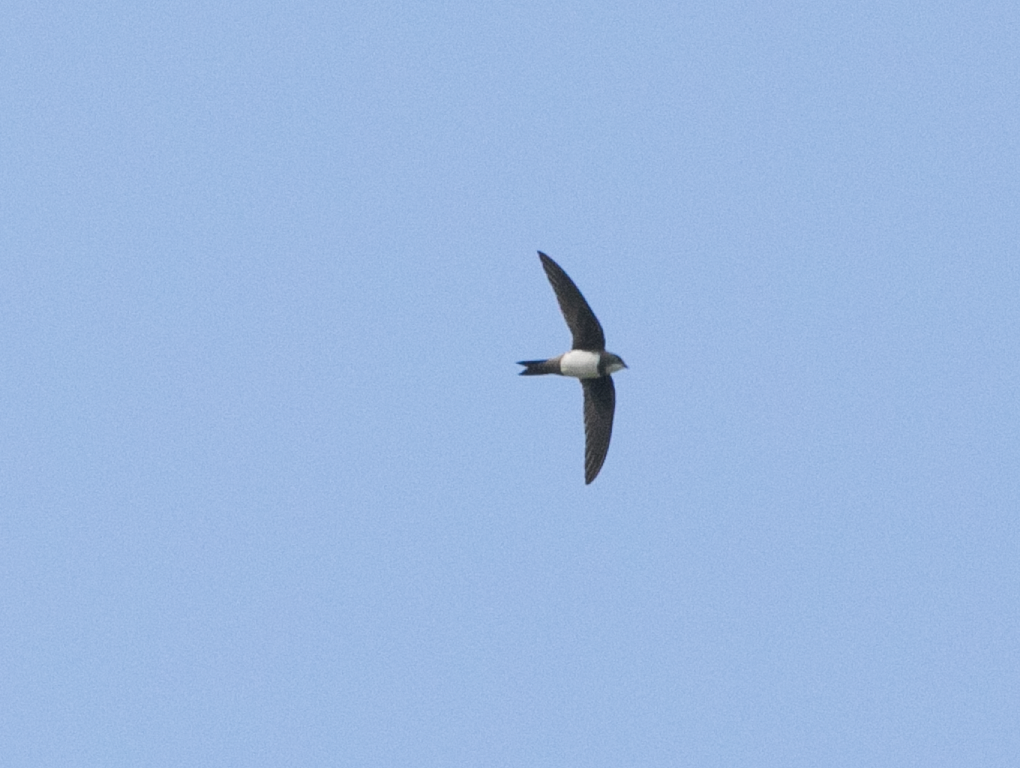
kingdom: Animalia
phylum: Chordata
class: Aves
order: Apodiformes
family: Apodidae
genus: Tachymarptis
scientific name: Tachymarptis melba
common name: Alpine swift
